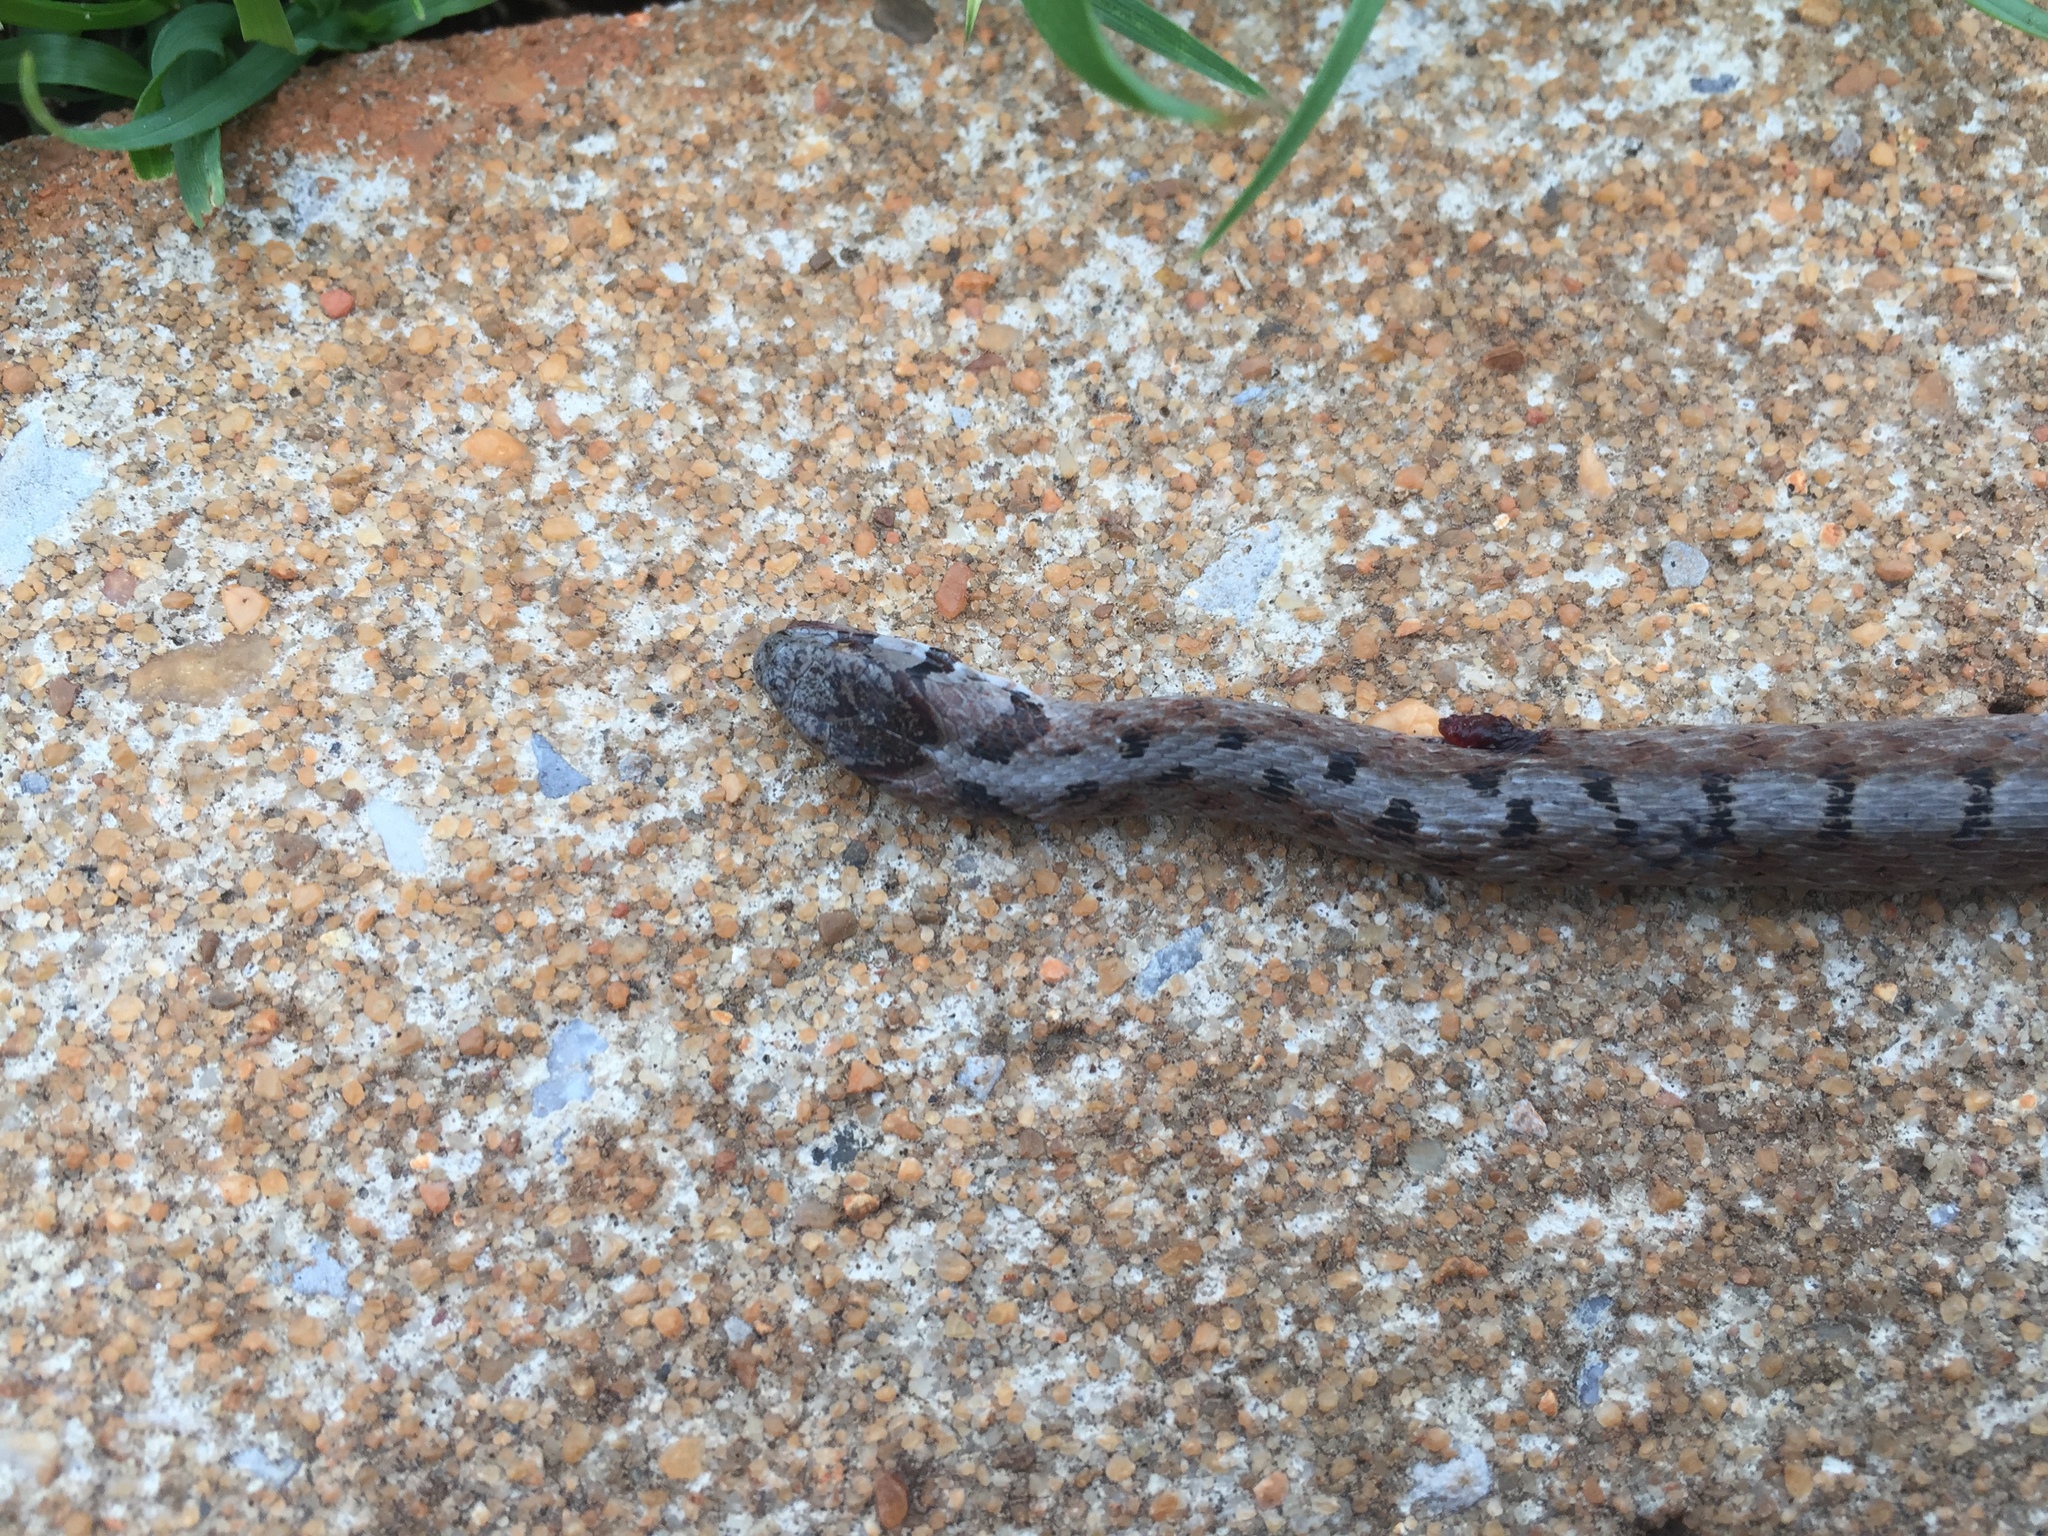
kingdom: Animalia
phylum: Chordata
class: Squamata
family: Colubridae
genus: Storeria
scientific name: Storeria dekayi
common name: (dekay’s) brown snake
